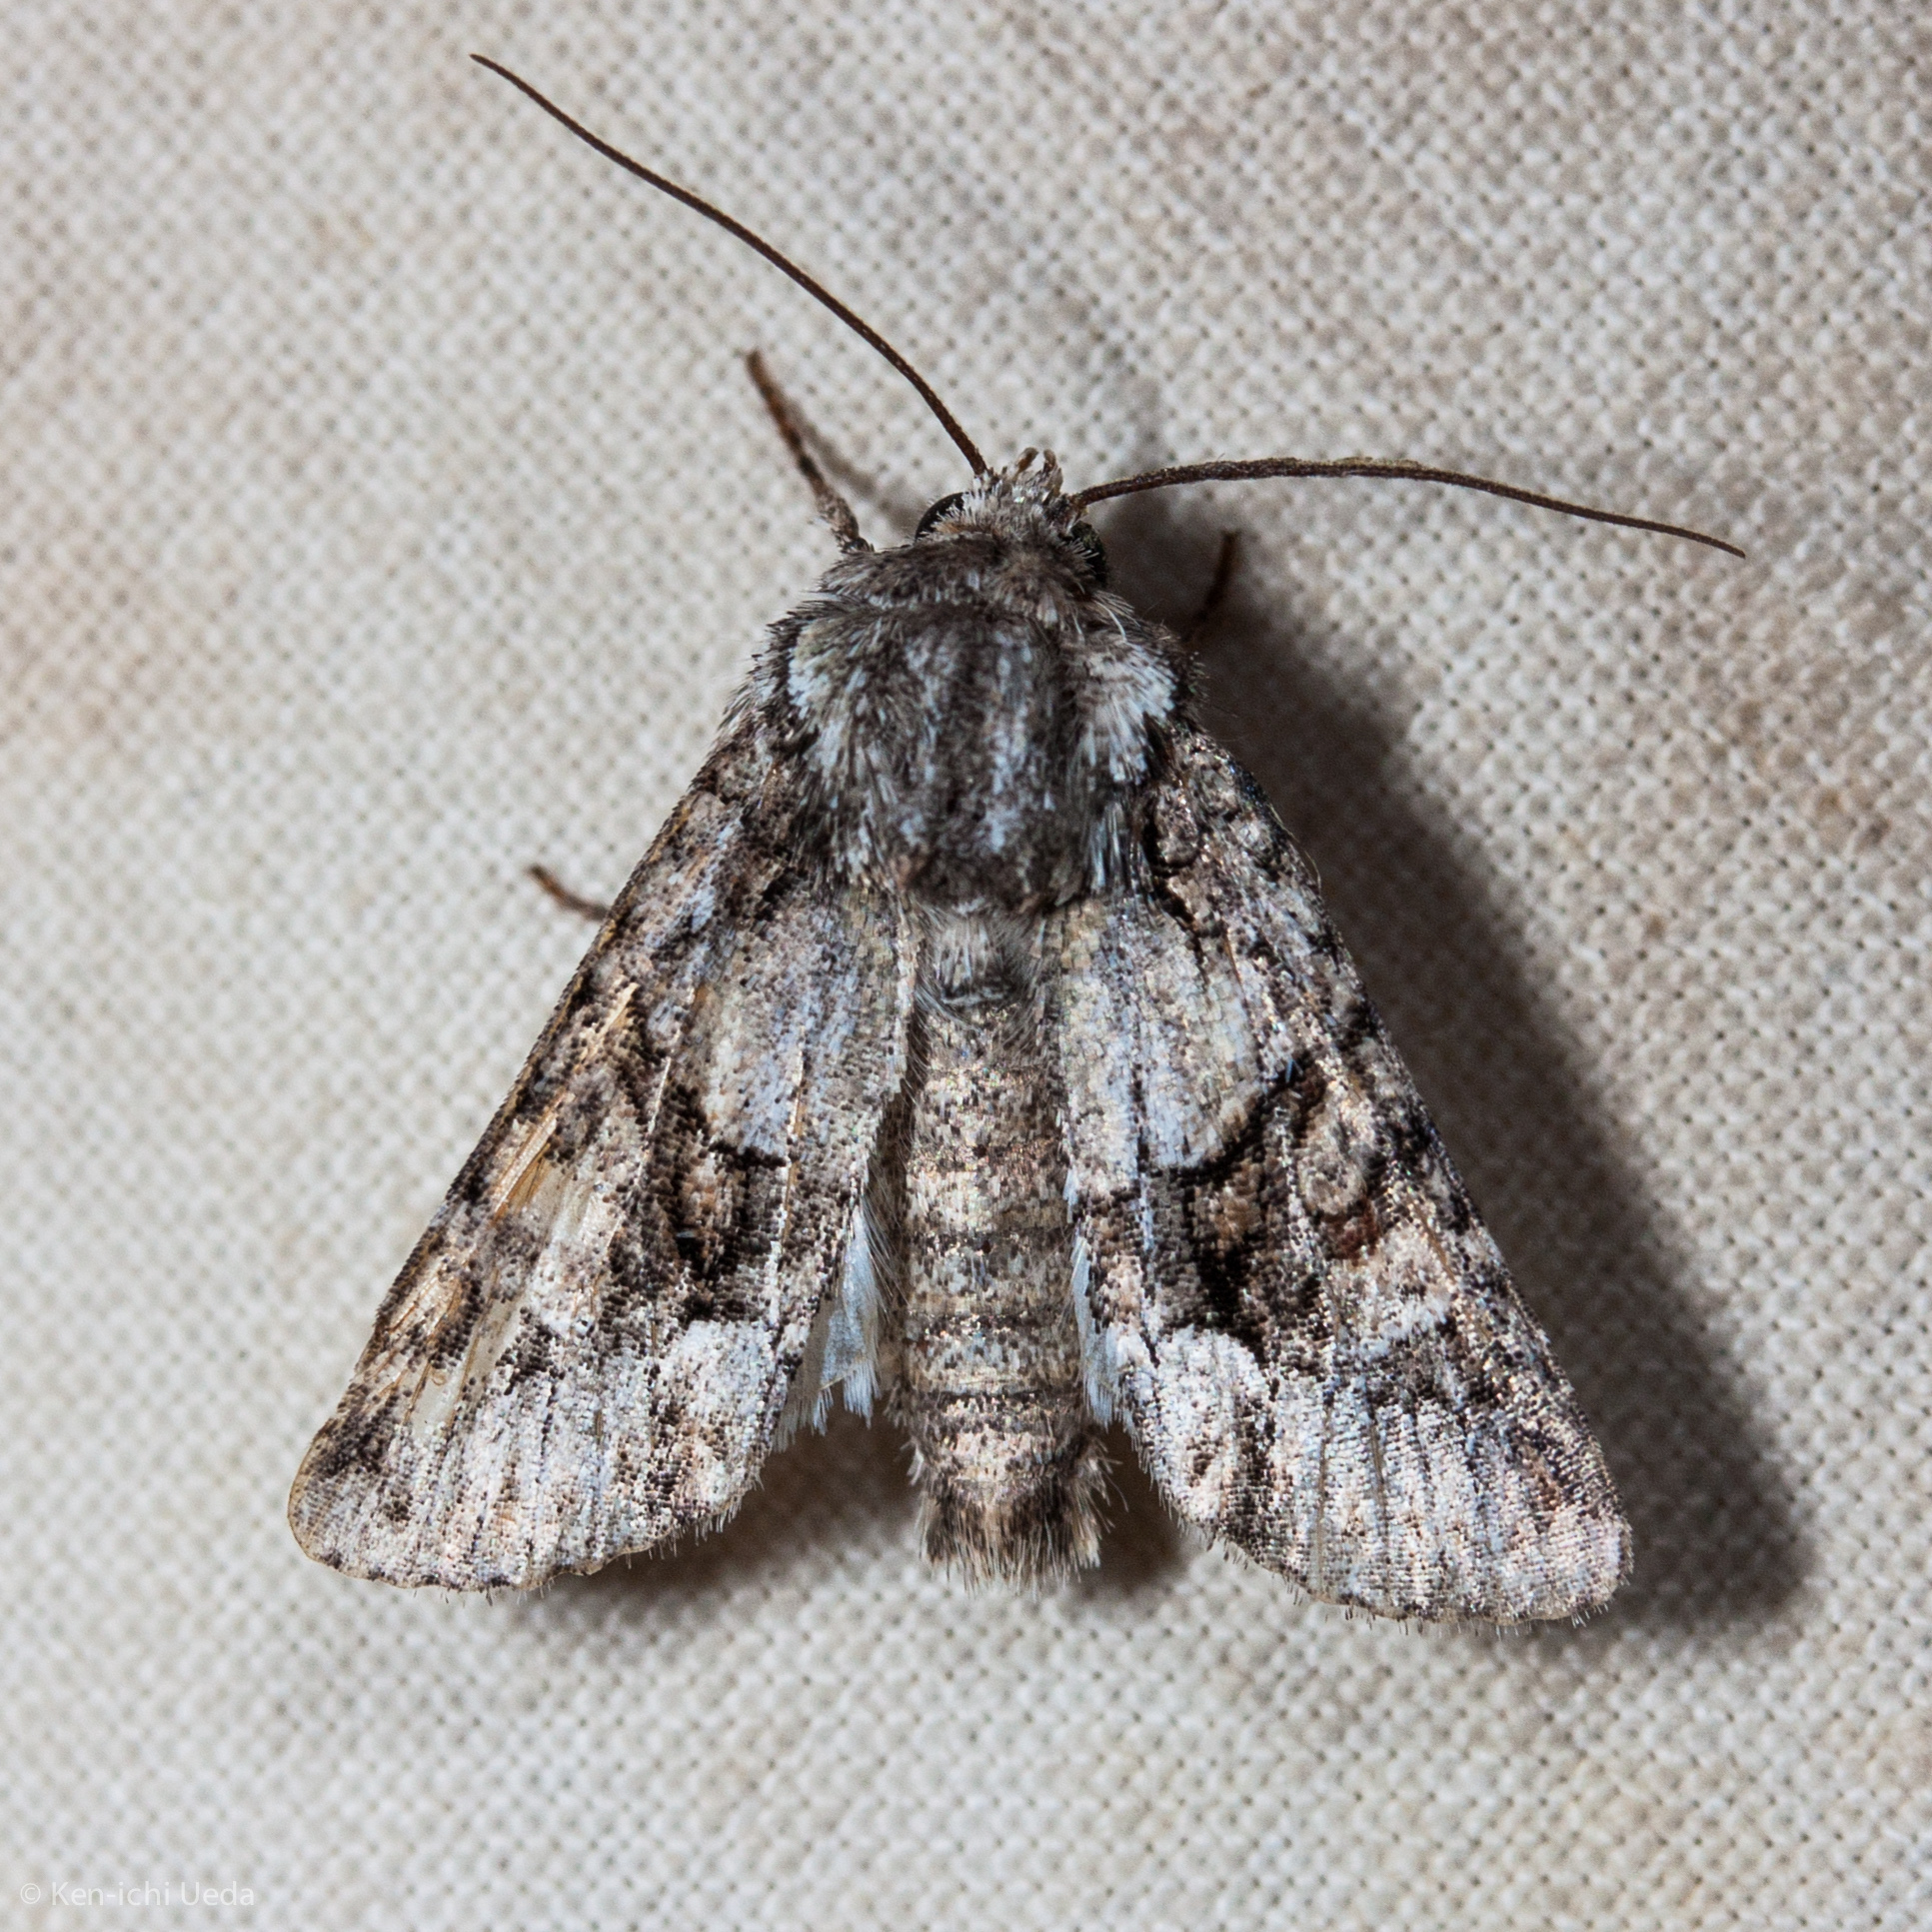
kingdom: Animalia
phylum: Arthropoda
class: Insecta
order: Lepidoptera
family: Noctuidae
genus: Lacinipolia
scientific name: Lacinipolia quadrilineata
